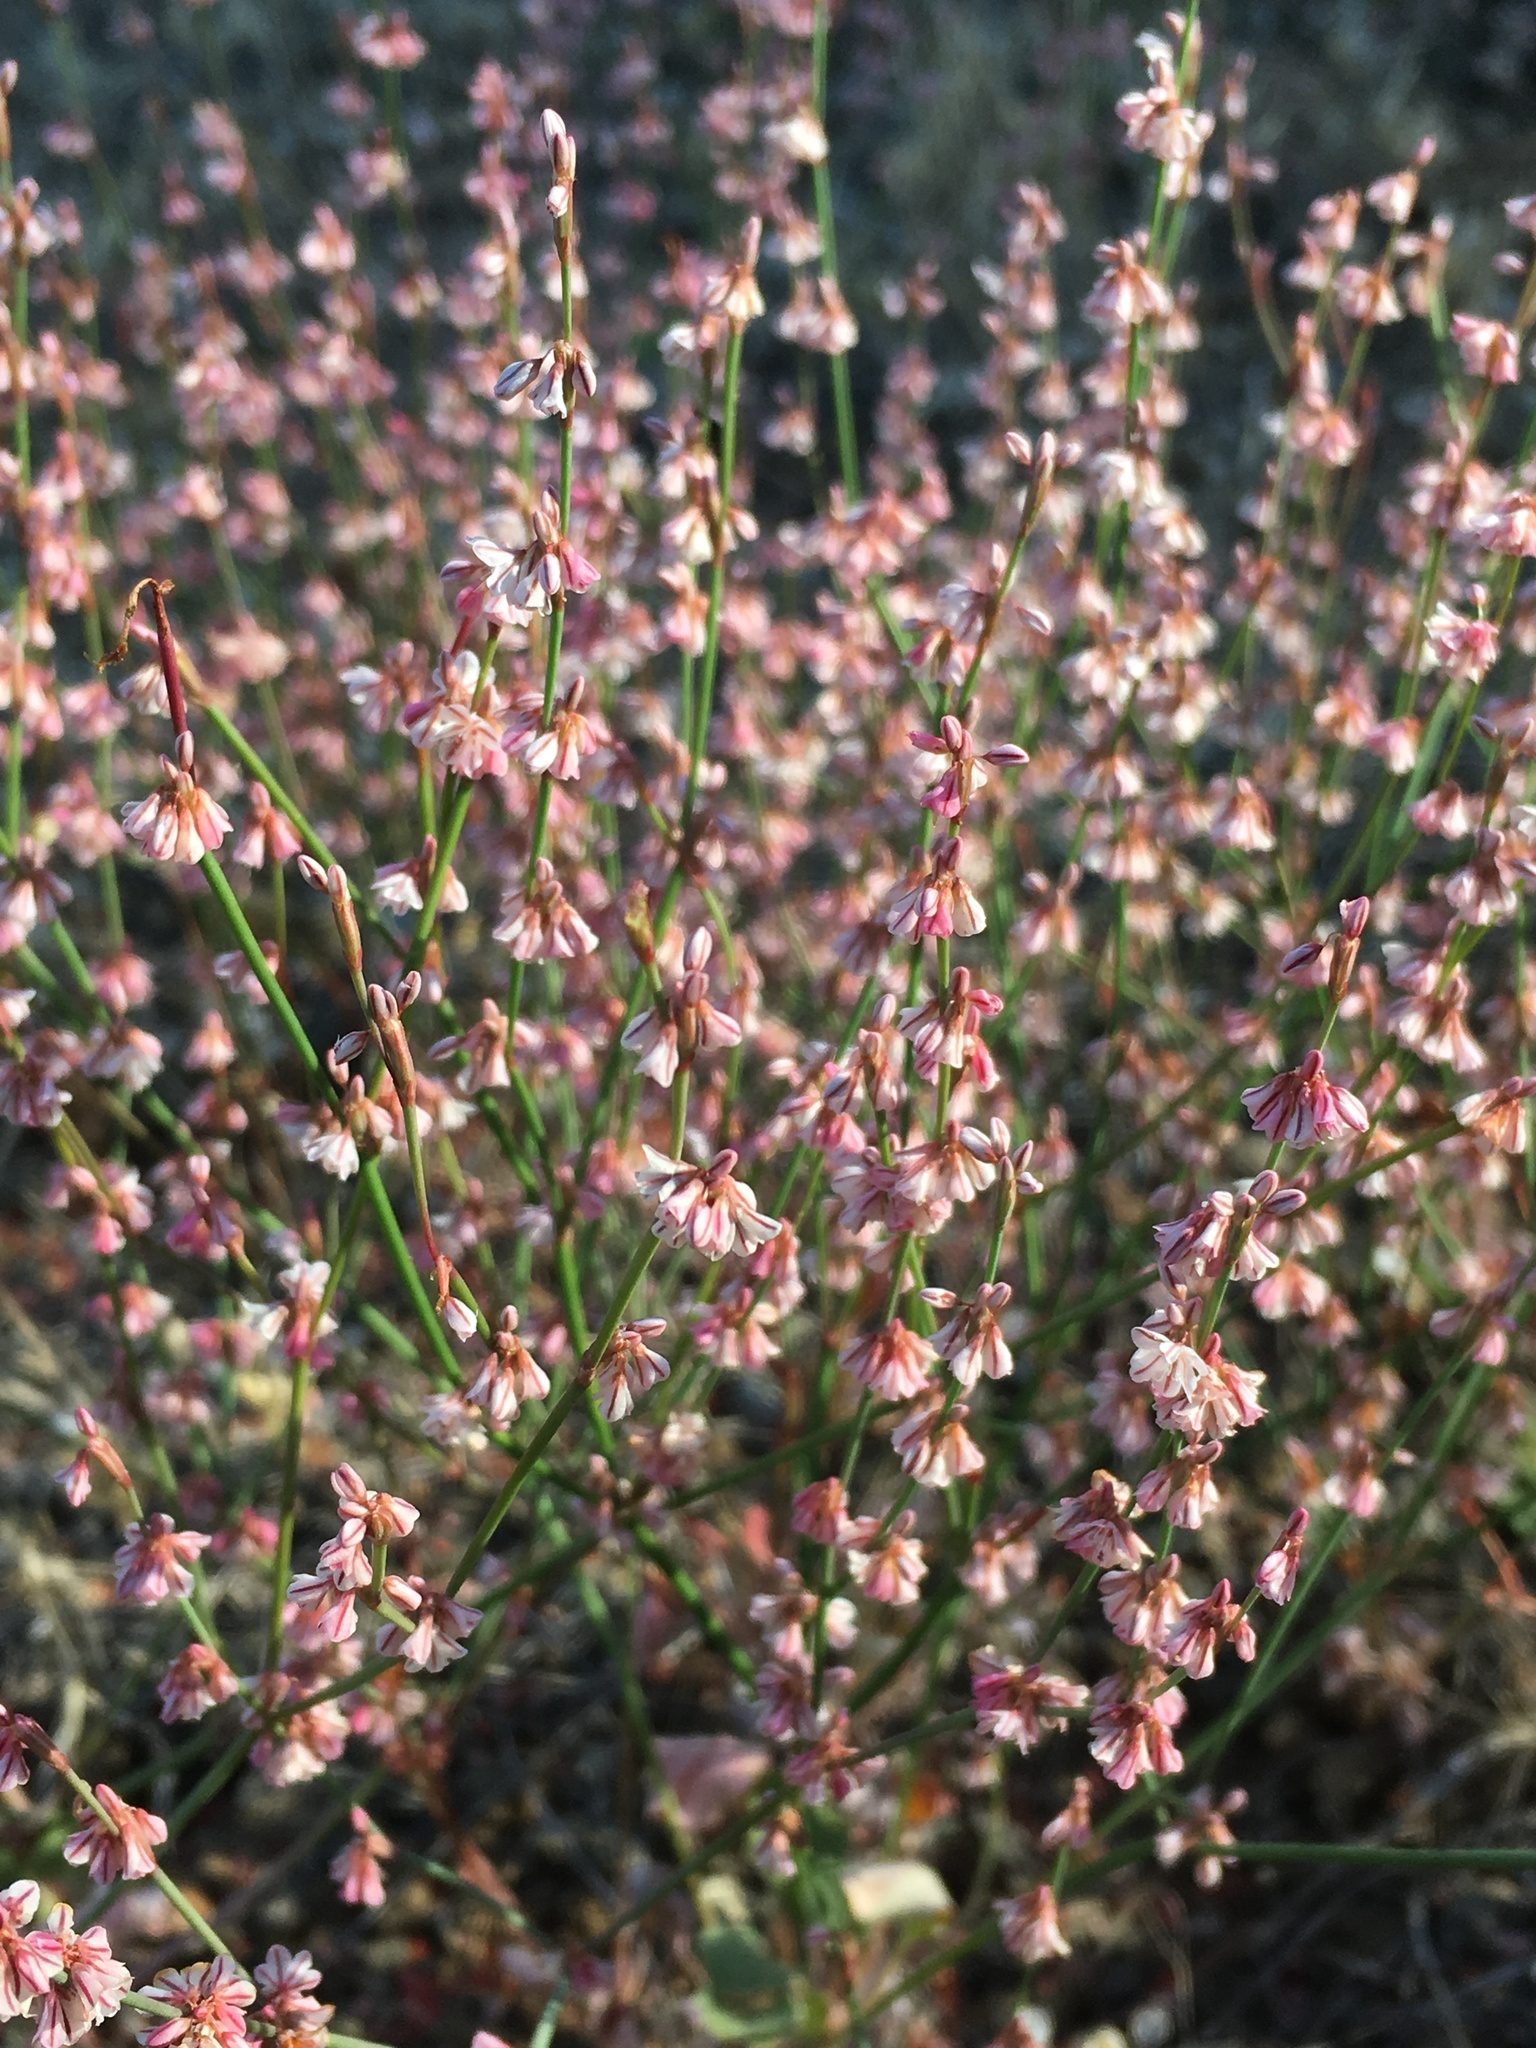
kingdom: Plantae
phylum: Tracheophyta
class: Magnoliopsida
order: Caryophyllales
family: Polygonaceae
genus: Eriogonum
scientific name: Eriogonum vimineum
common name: Wicker buckwheat
